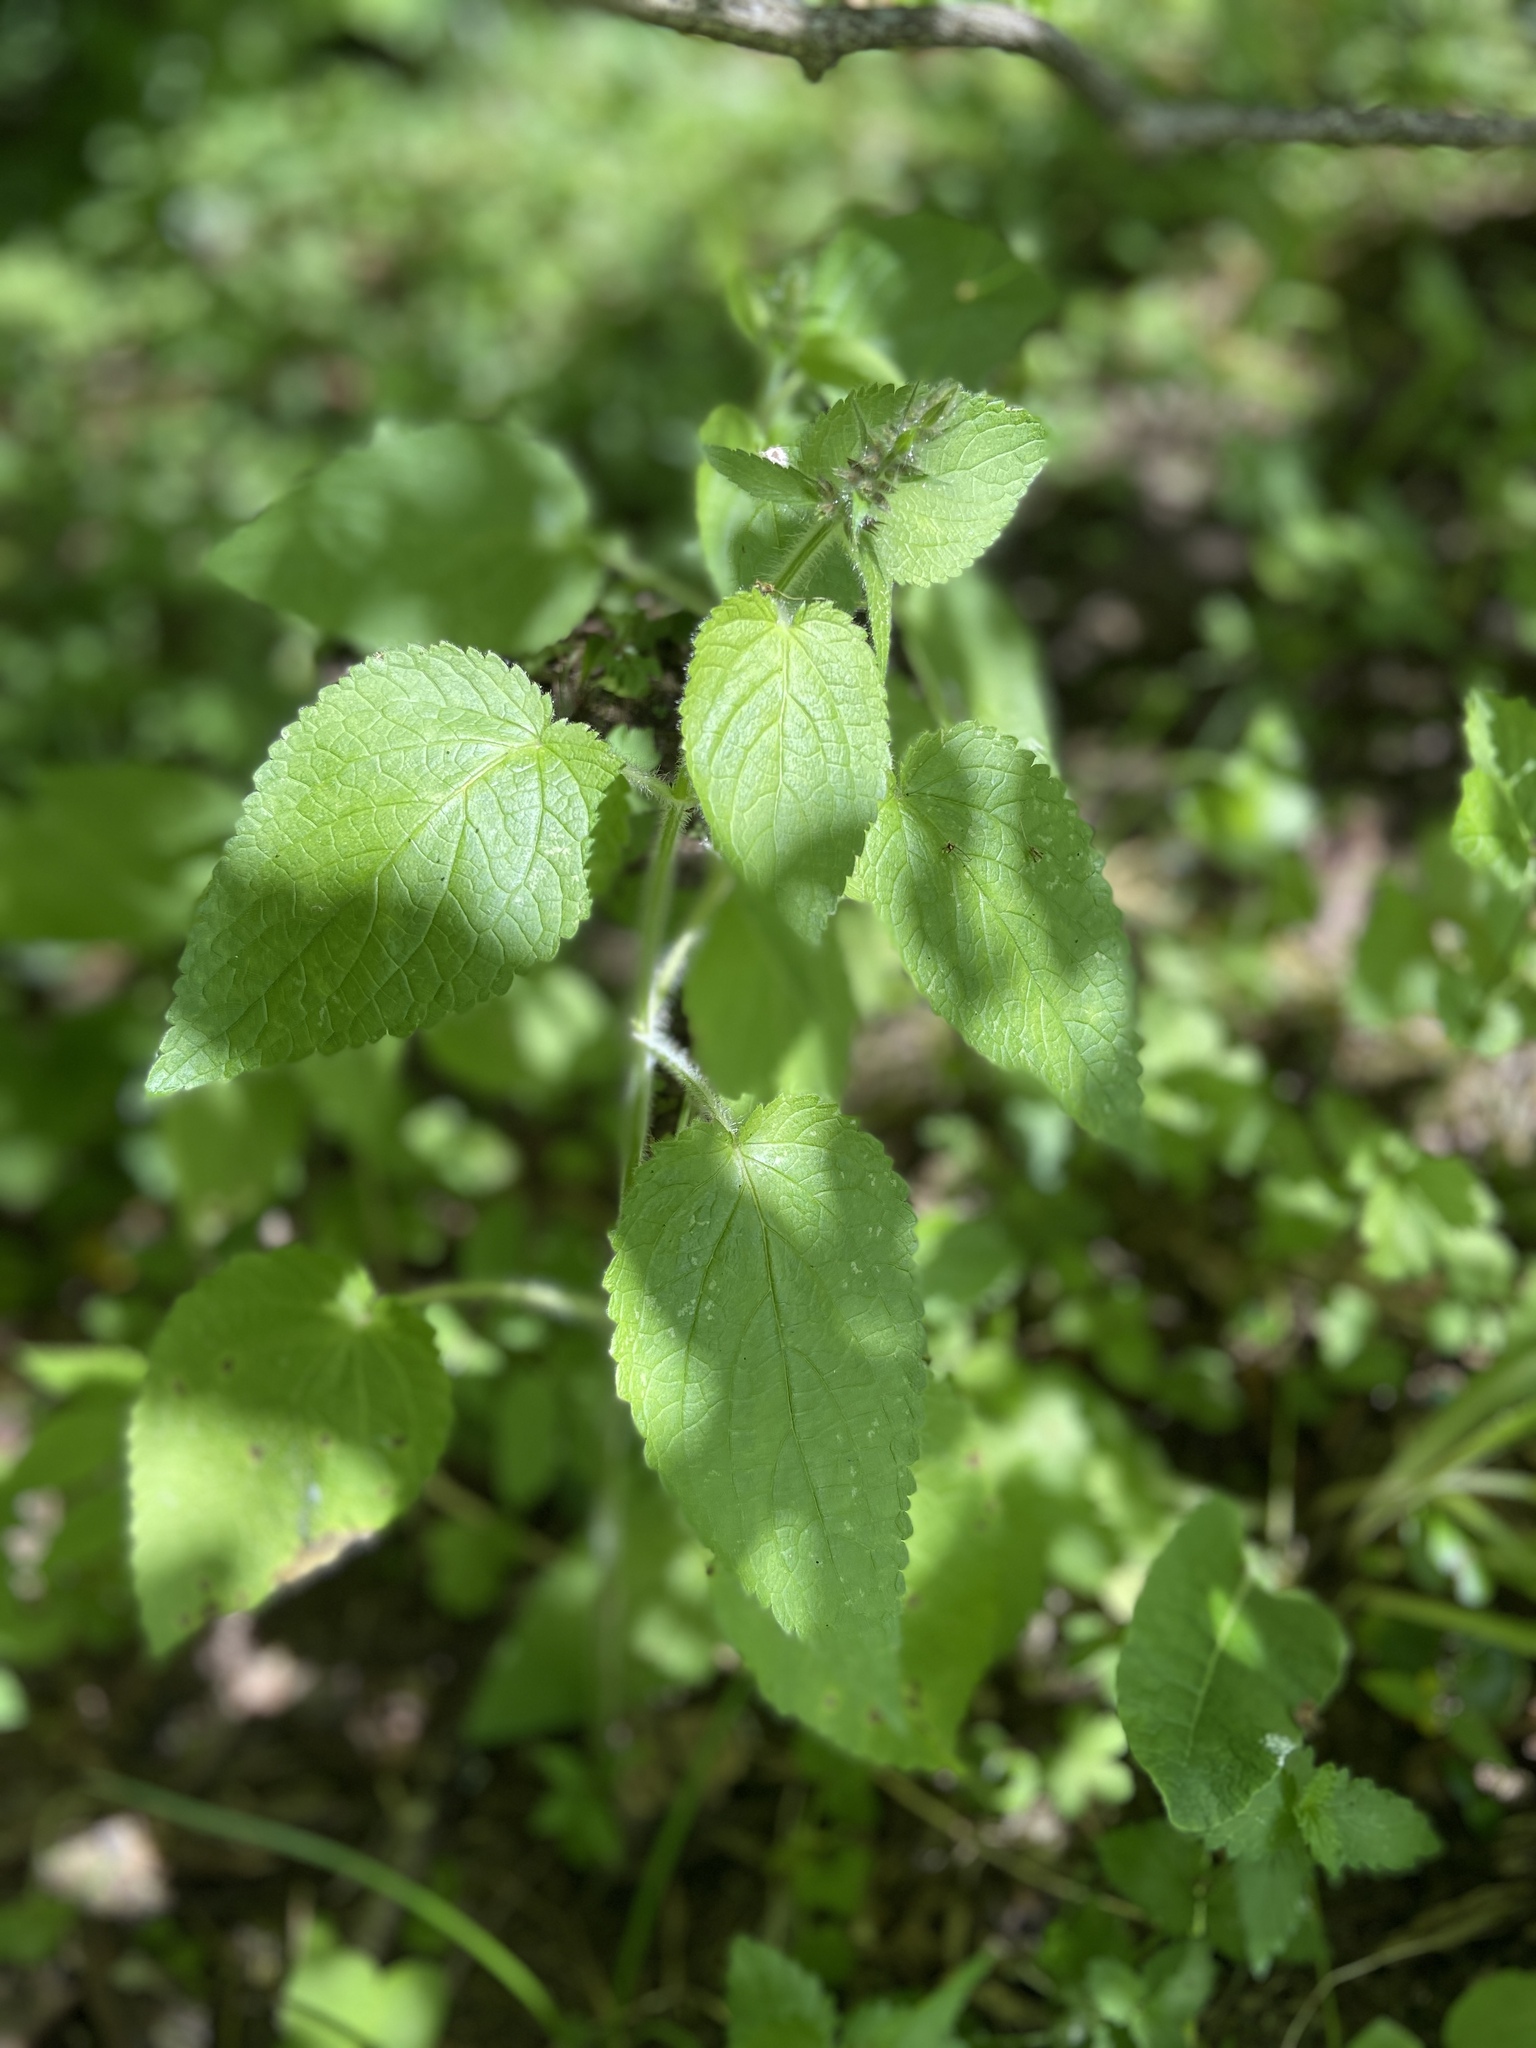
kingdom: Plantae
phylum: Tracheophyta
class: Magnoliopsida
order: Lamiales
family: Lamiaceae
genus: Stachys
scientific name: Stachys sylvatica
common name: Hedge woundwort
